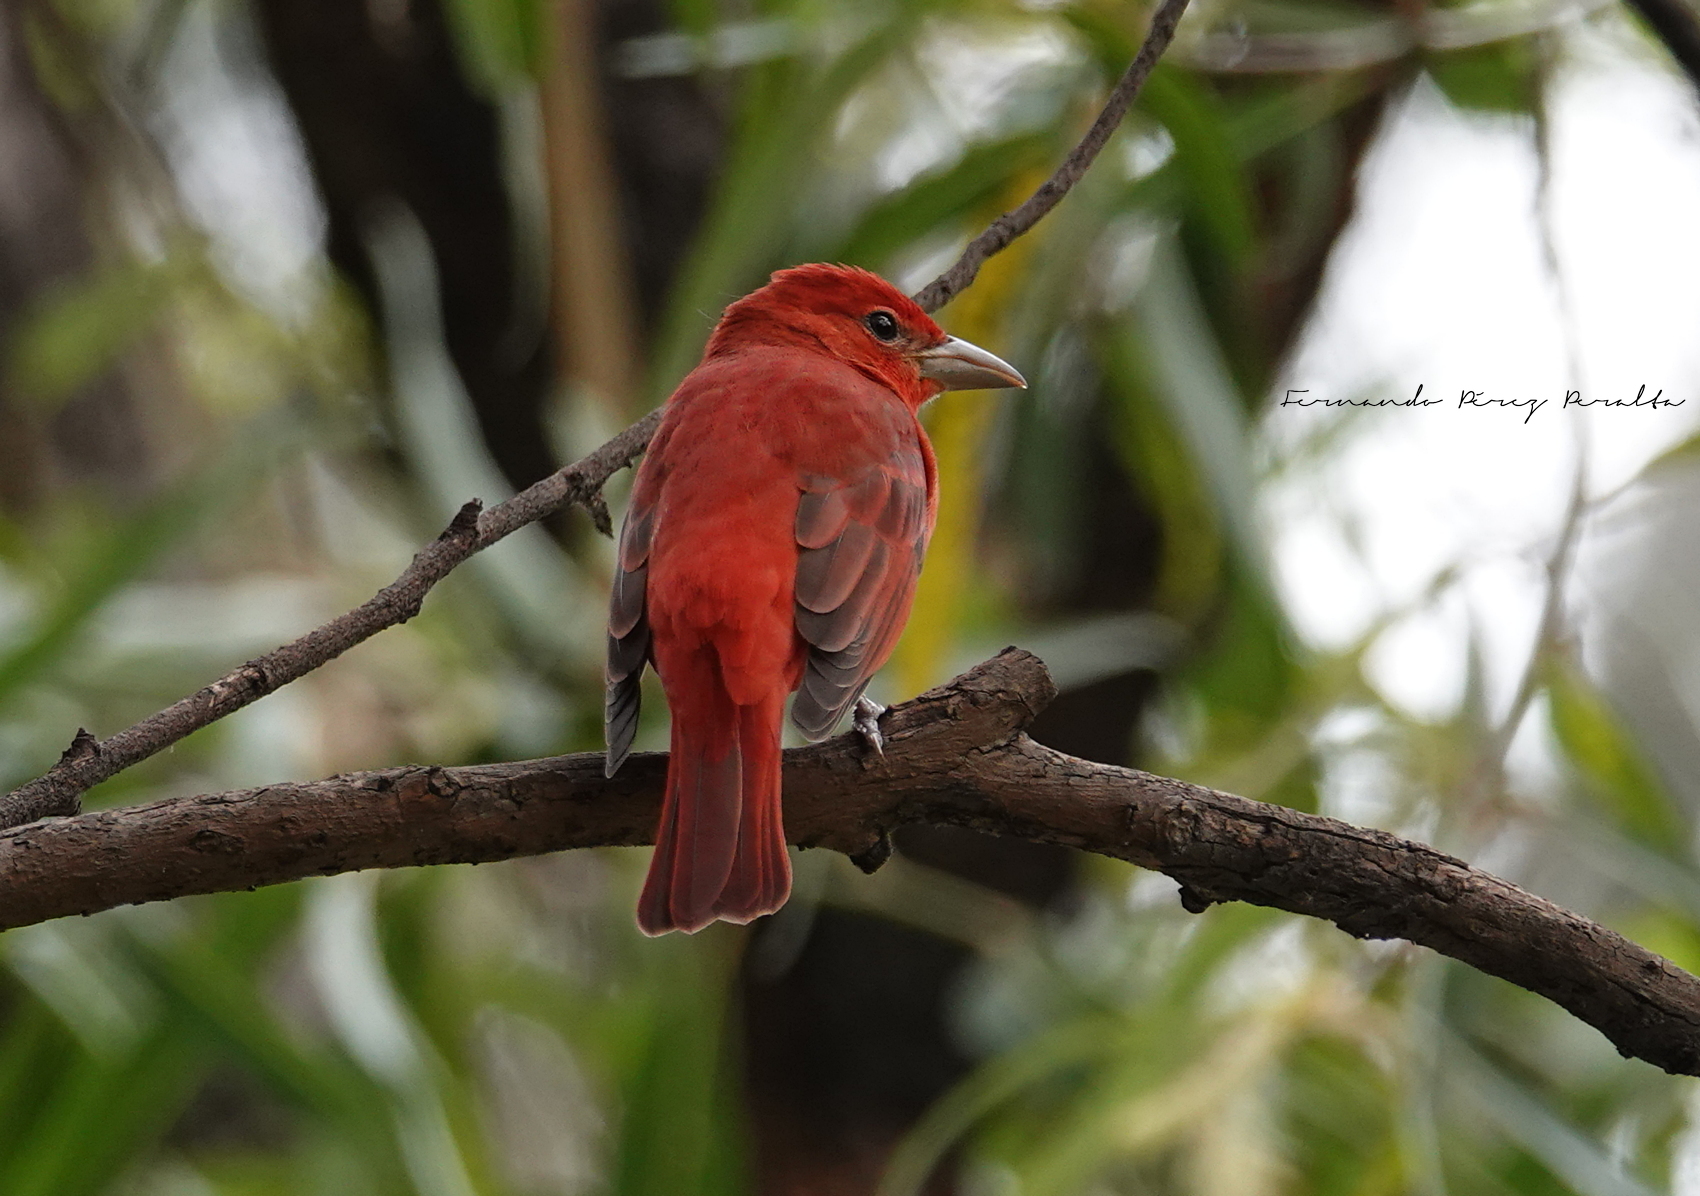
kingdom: Animalia
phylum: Chordata
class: Aves
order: Passeriformes
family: Cardinalidae
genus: Piranga
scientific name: Piranga rubra
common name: Summer tanager
